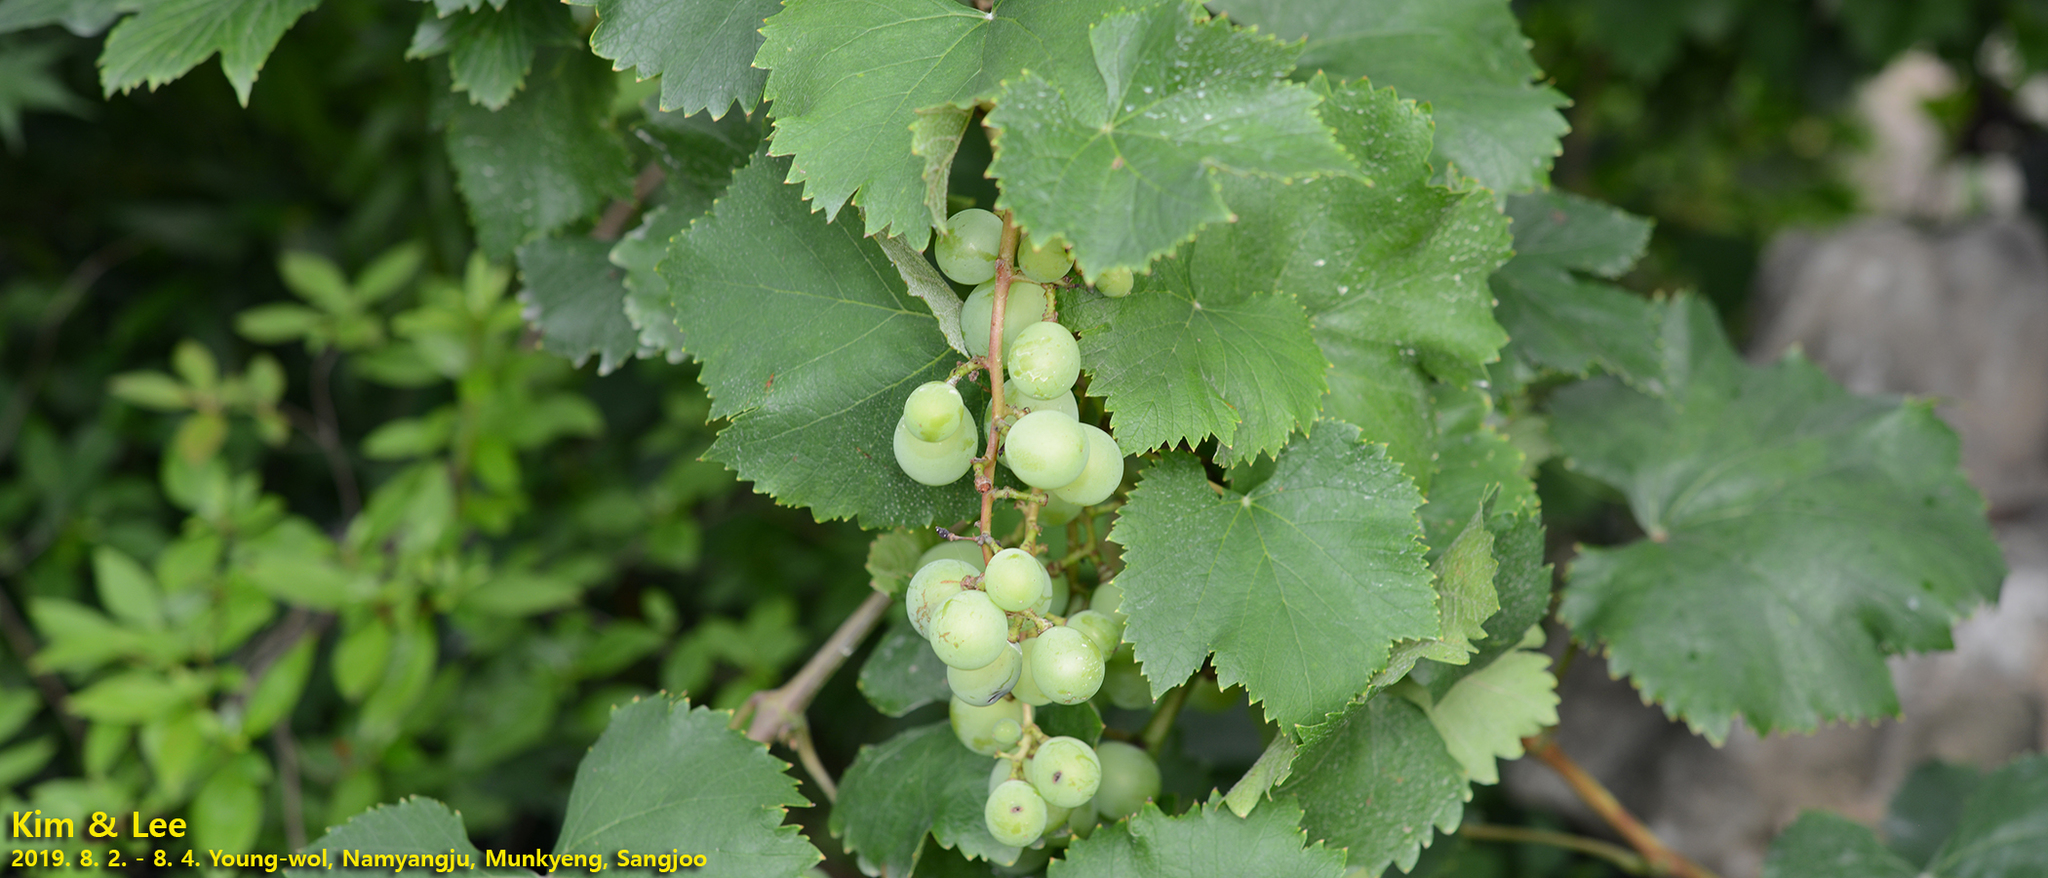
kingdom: Plantae
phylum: Tracheophyta
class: Magnoliopsida
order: Vitales
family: Vitaceae
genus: Vitis
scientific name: Vitis vinifera
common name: Grape-vine
